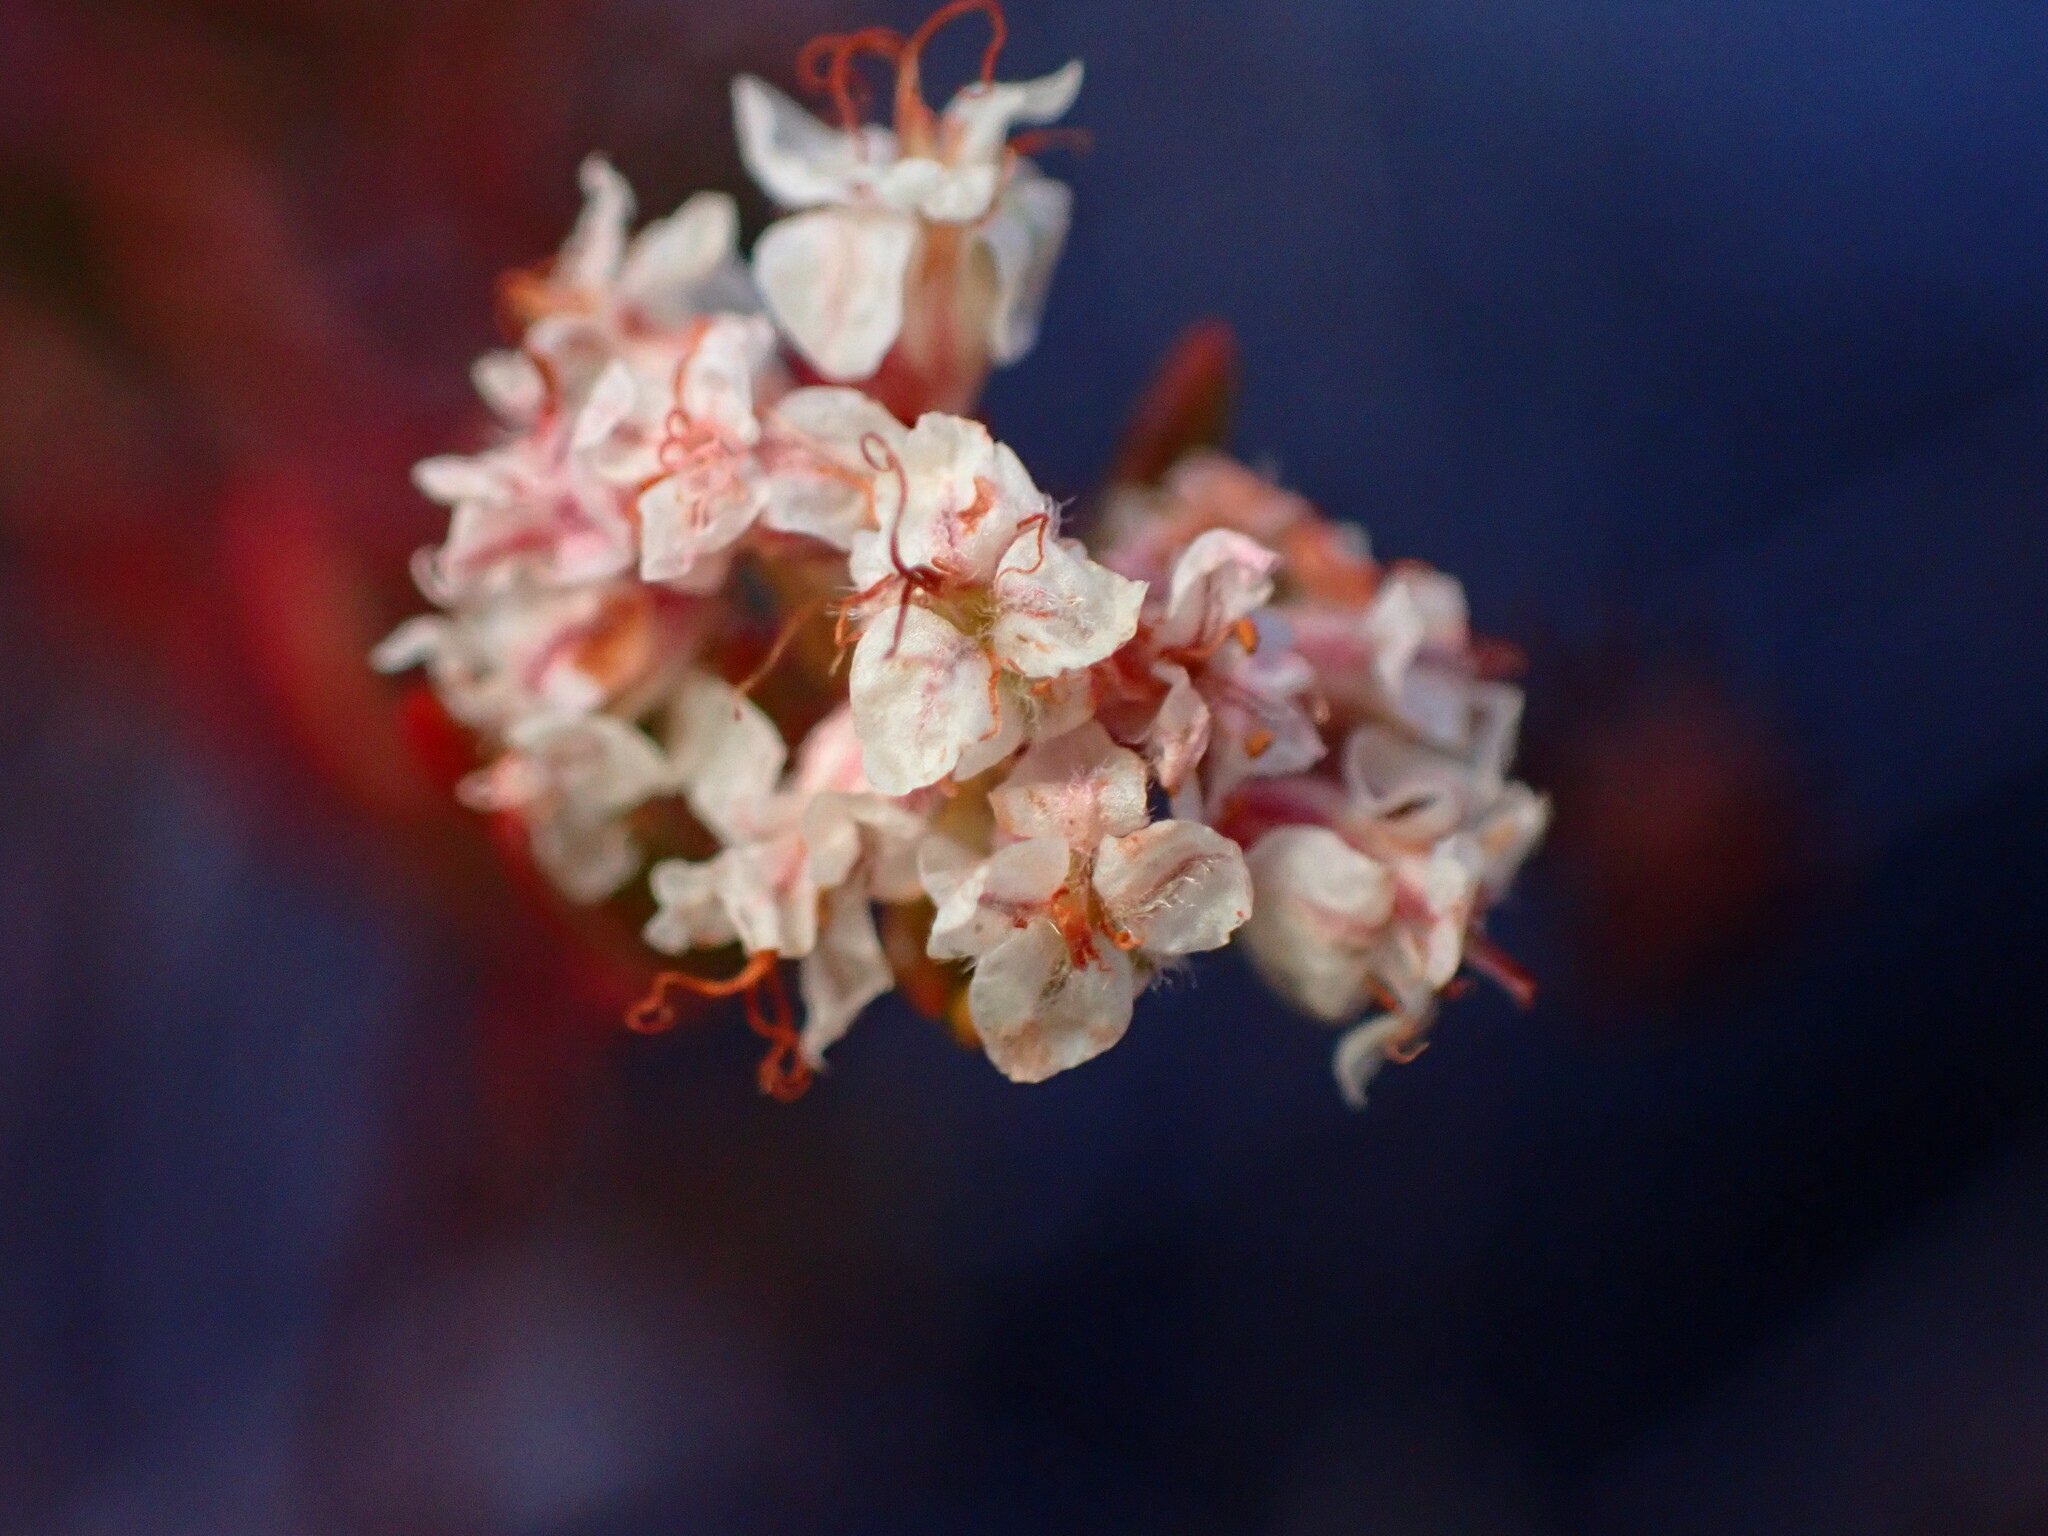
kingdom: Plantae
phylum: Tracheophyta
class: Magnoliopsida
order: Caryophyllales
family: Polygonaceae
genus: Eriogonum
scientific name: Eriogonum fasciculatum
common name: California wild buckwheat
